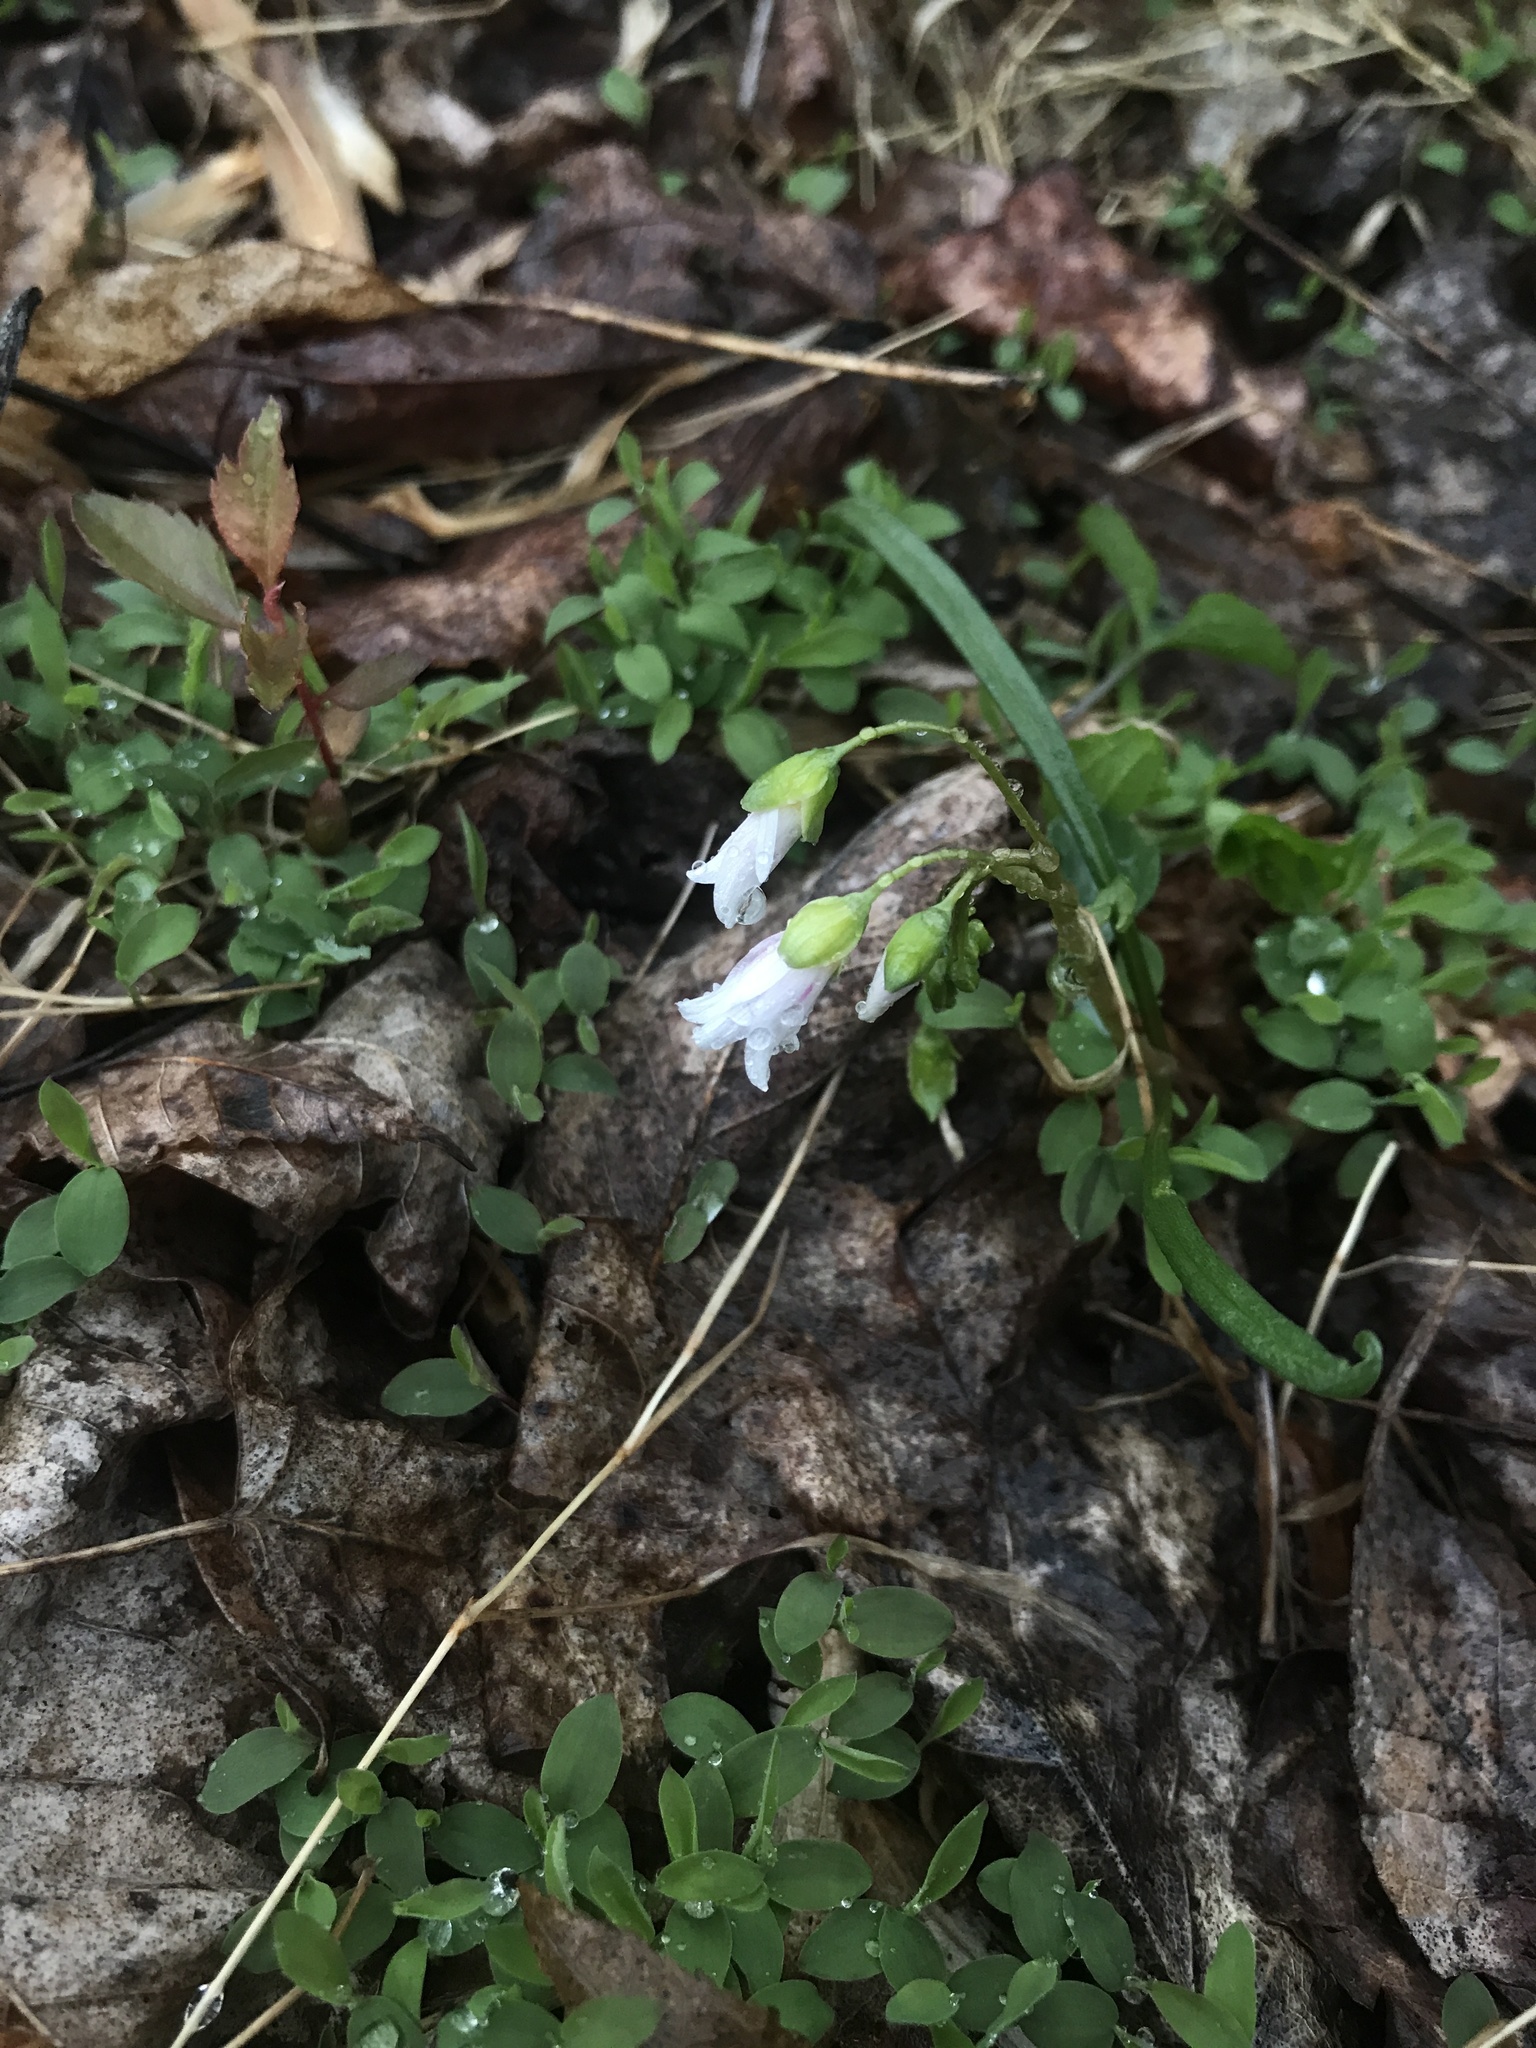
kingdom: Plantae
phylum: Tracheophyta
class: Magnoliopsida
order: Caryophyllales
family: Montiaceae
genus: Claytonia
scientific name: Claytonia virginica
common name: Virginia springbeauty
